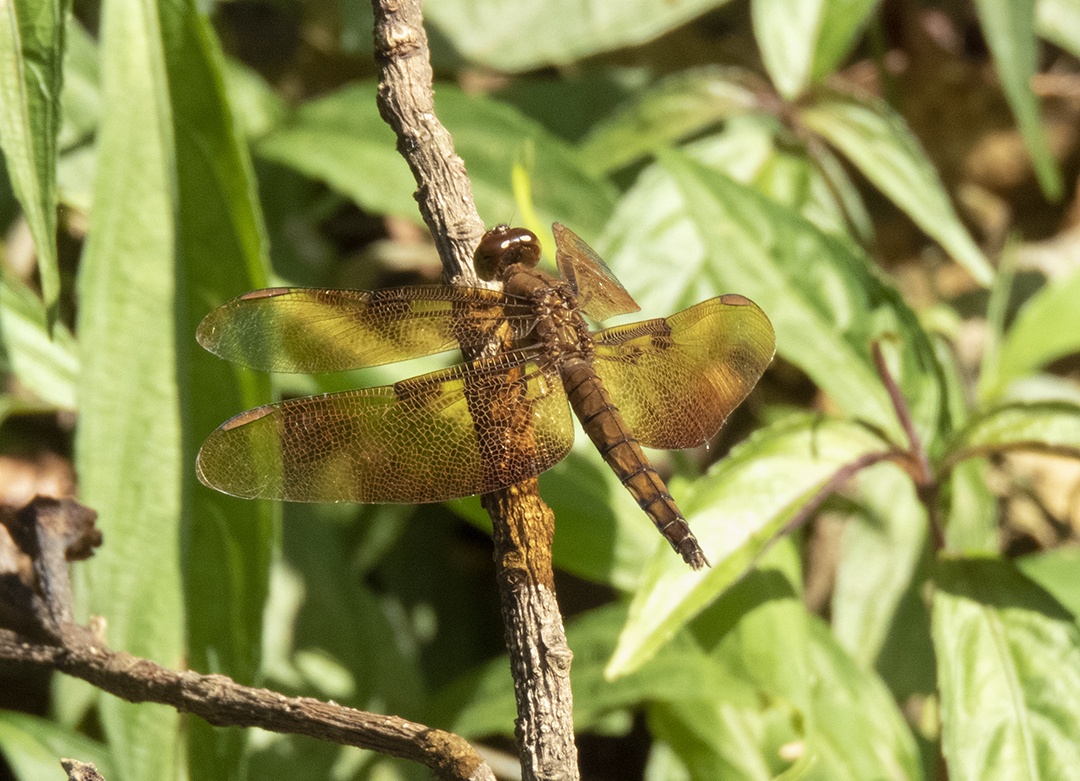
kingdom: Animalia
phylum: Arthropoda
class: Insecta
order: Odonata
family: Libellulidae
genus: Neurothemis
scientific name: Neurothemis fulvia
